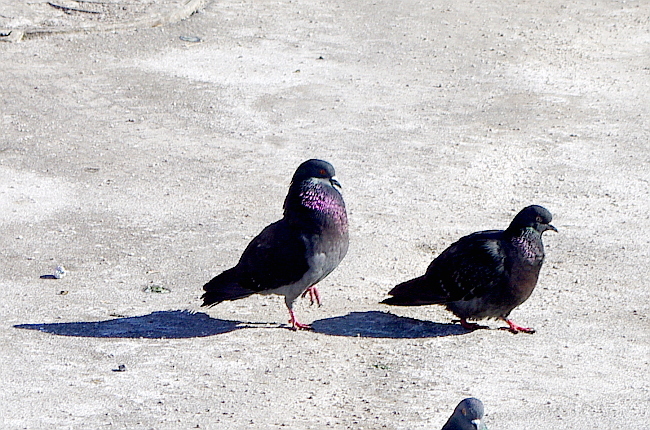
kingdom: Animalia
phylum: Chordata
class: Aves
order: Columbiformes
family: Columbidae
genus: Columba
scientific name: Columba livia
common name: Rock pigeon
